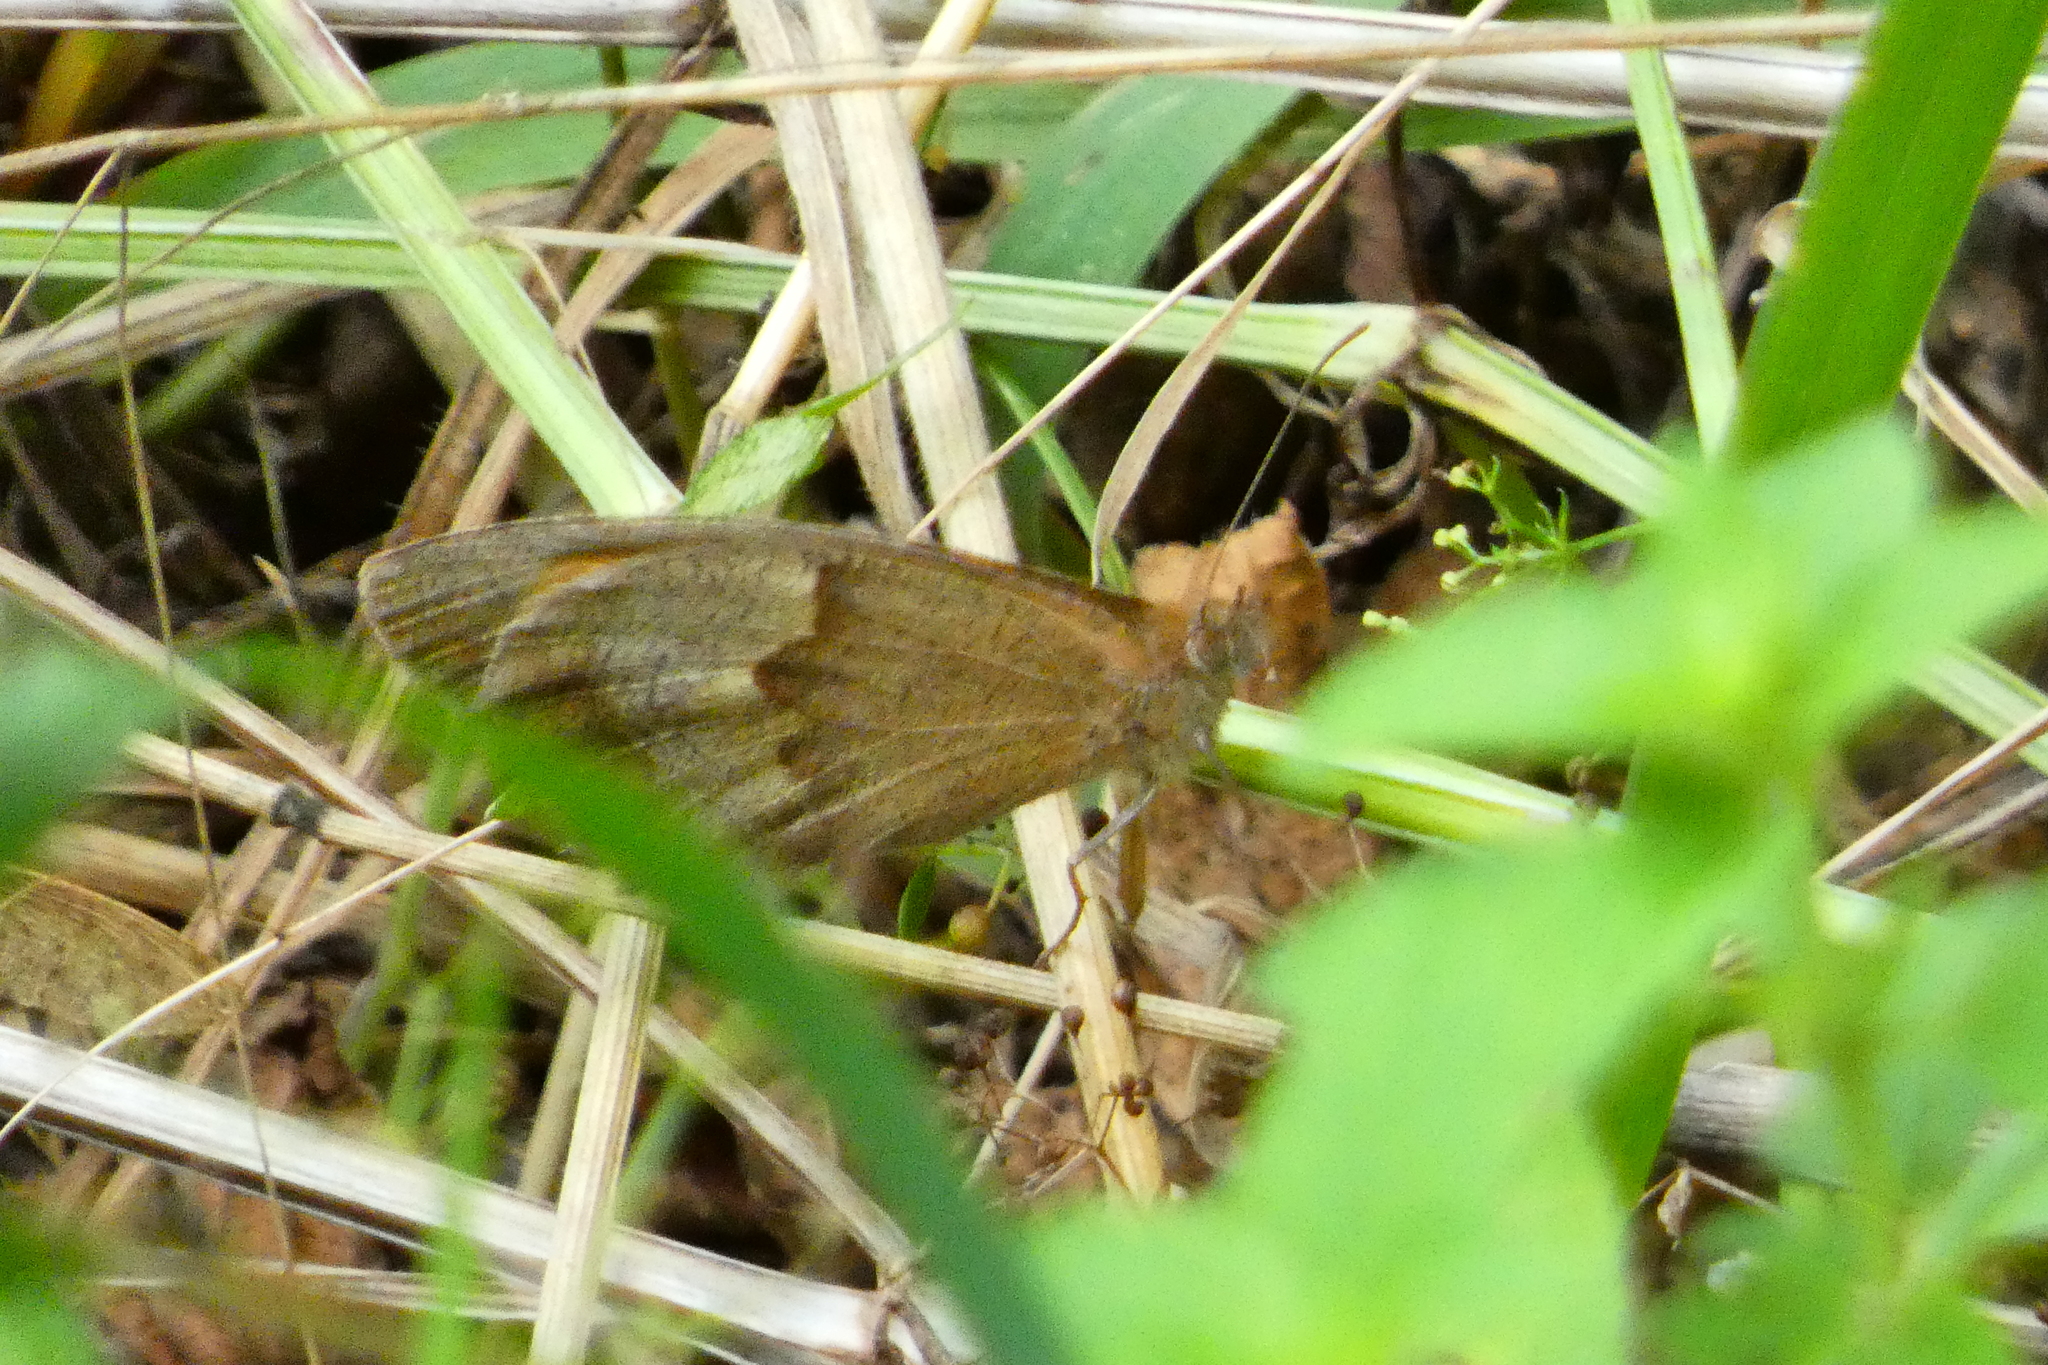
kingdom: Animalia
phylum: Arthropoda
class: Insecta
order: Lepidoptera
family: Nymphalidae
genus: Maniola
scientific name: Maniola jurtina
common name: Meadow brown
